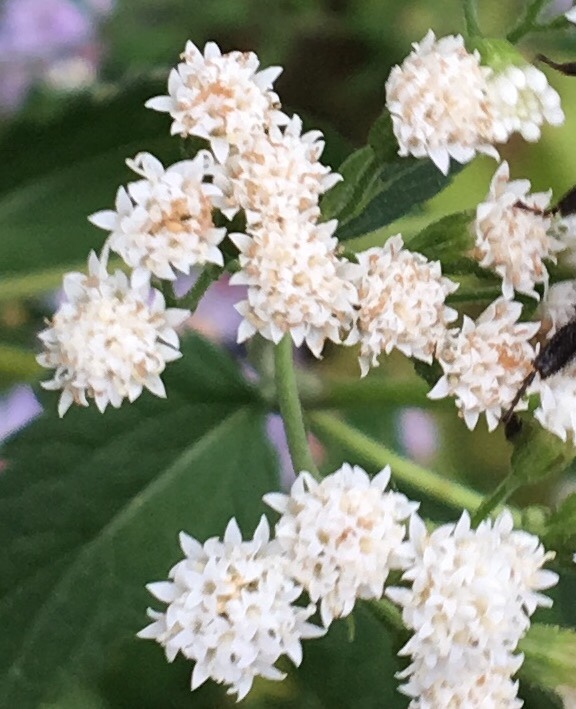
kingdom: Plantae
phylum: Tracheophyta
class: Magnoliopsida
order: Asterales
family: Asteraceae
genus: Ageratina
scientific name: Ageratina altissima
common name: White snakeroot
